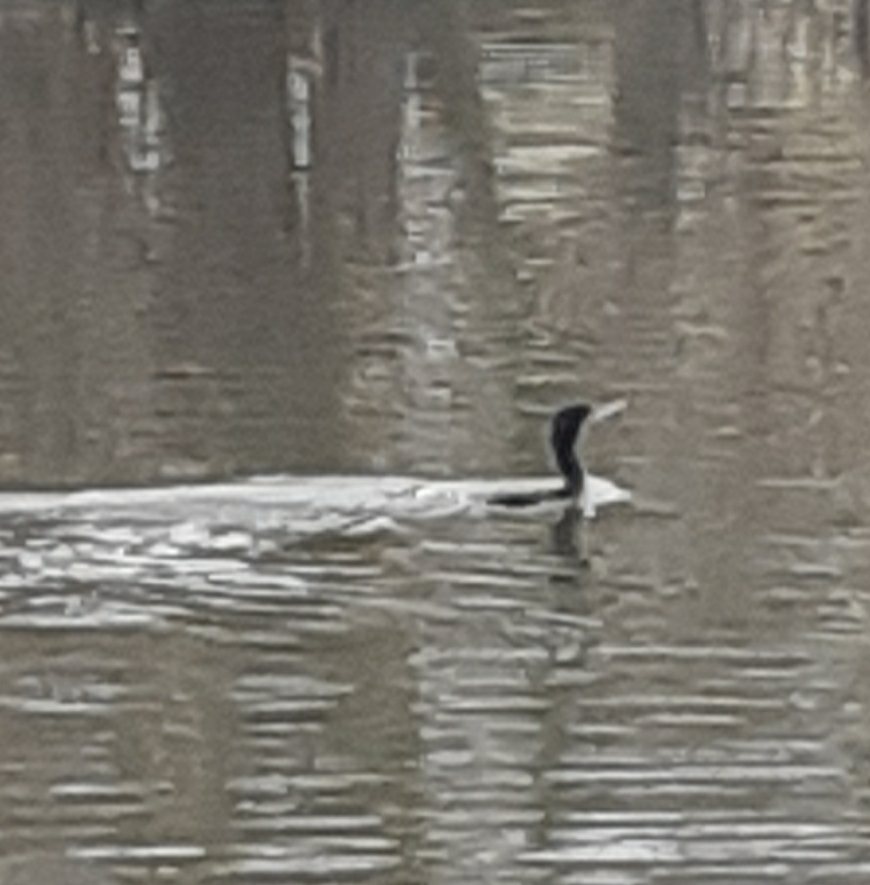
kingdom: Animalia
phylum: Chordata
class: Aves
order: Suliformes
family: Phalacrocoracidae
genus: Phalacrocorax
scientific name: Phalacrocorax carbo
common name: Great cormorant
